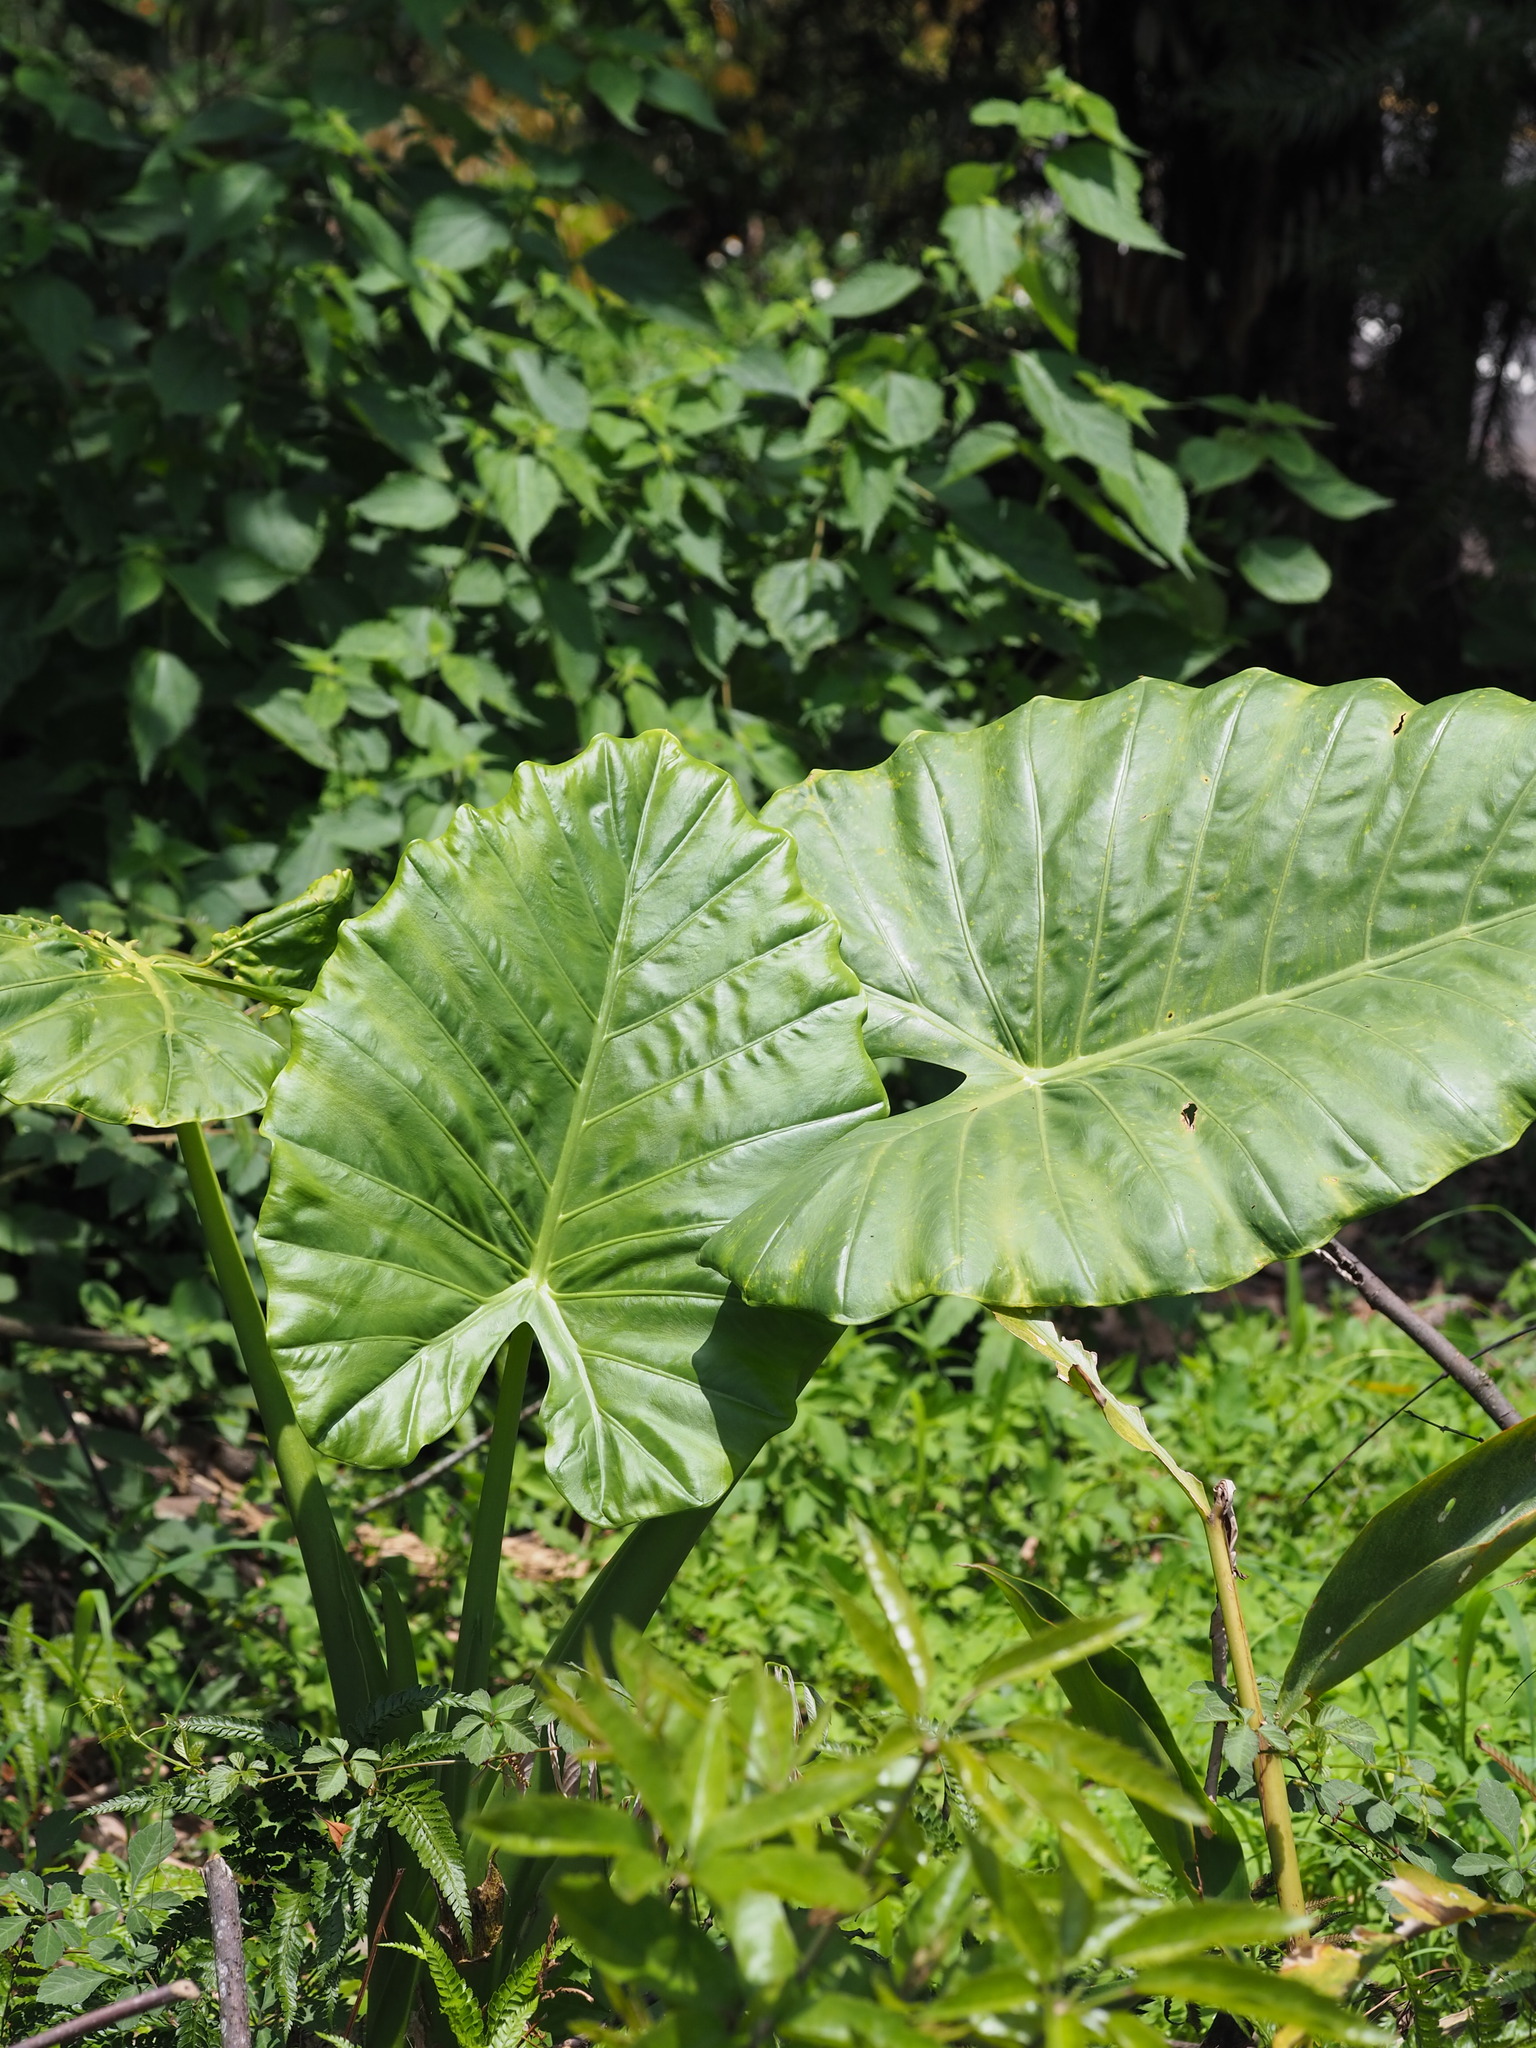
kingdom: Plantae
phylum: Tracheophyta
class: Liliopsida
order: Alismatales
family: Araceae
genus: Alocasia
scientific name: Alocasia odora
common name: Asian taro
